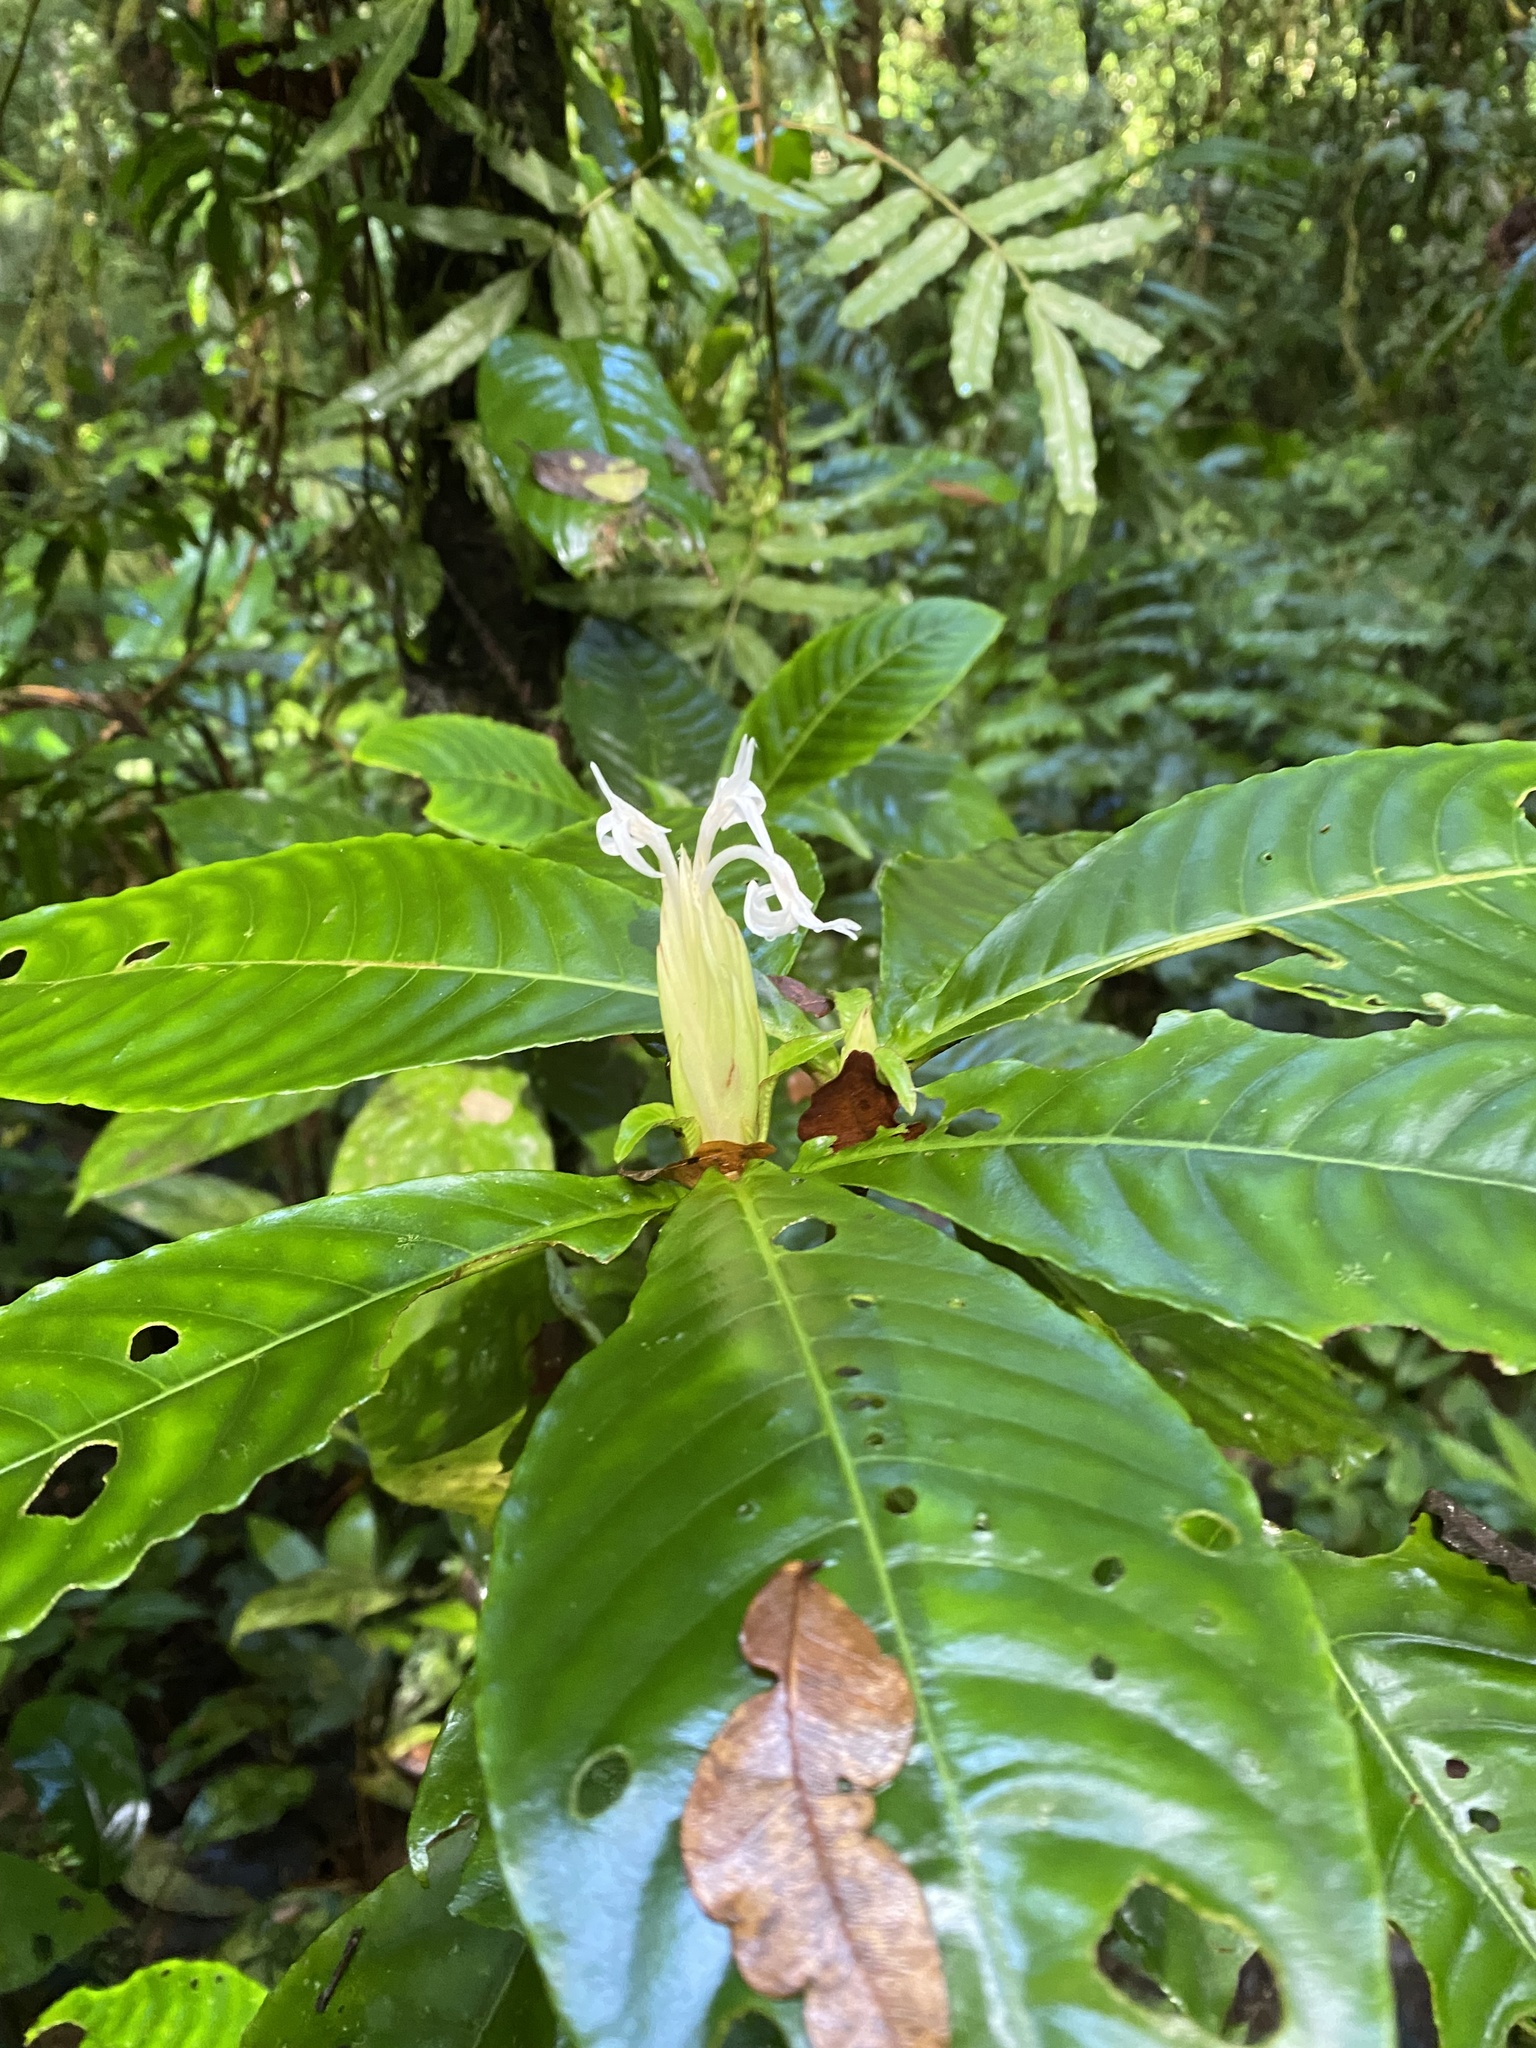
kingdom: Plantae
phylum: Tracheophyta
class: Magnoliopsida
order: Lamiales
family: Acanthaceae
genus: Aphelandra
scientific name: Aphelandra dolichantha
